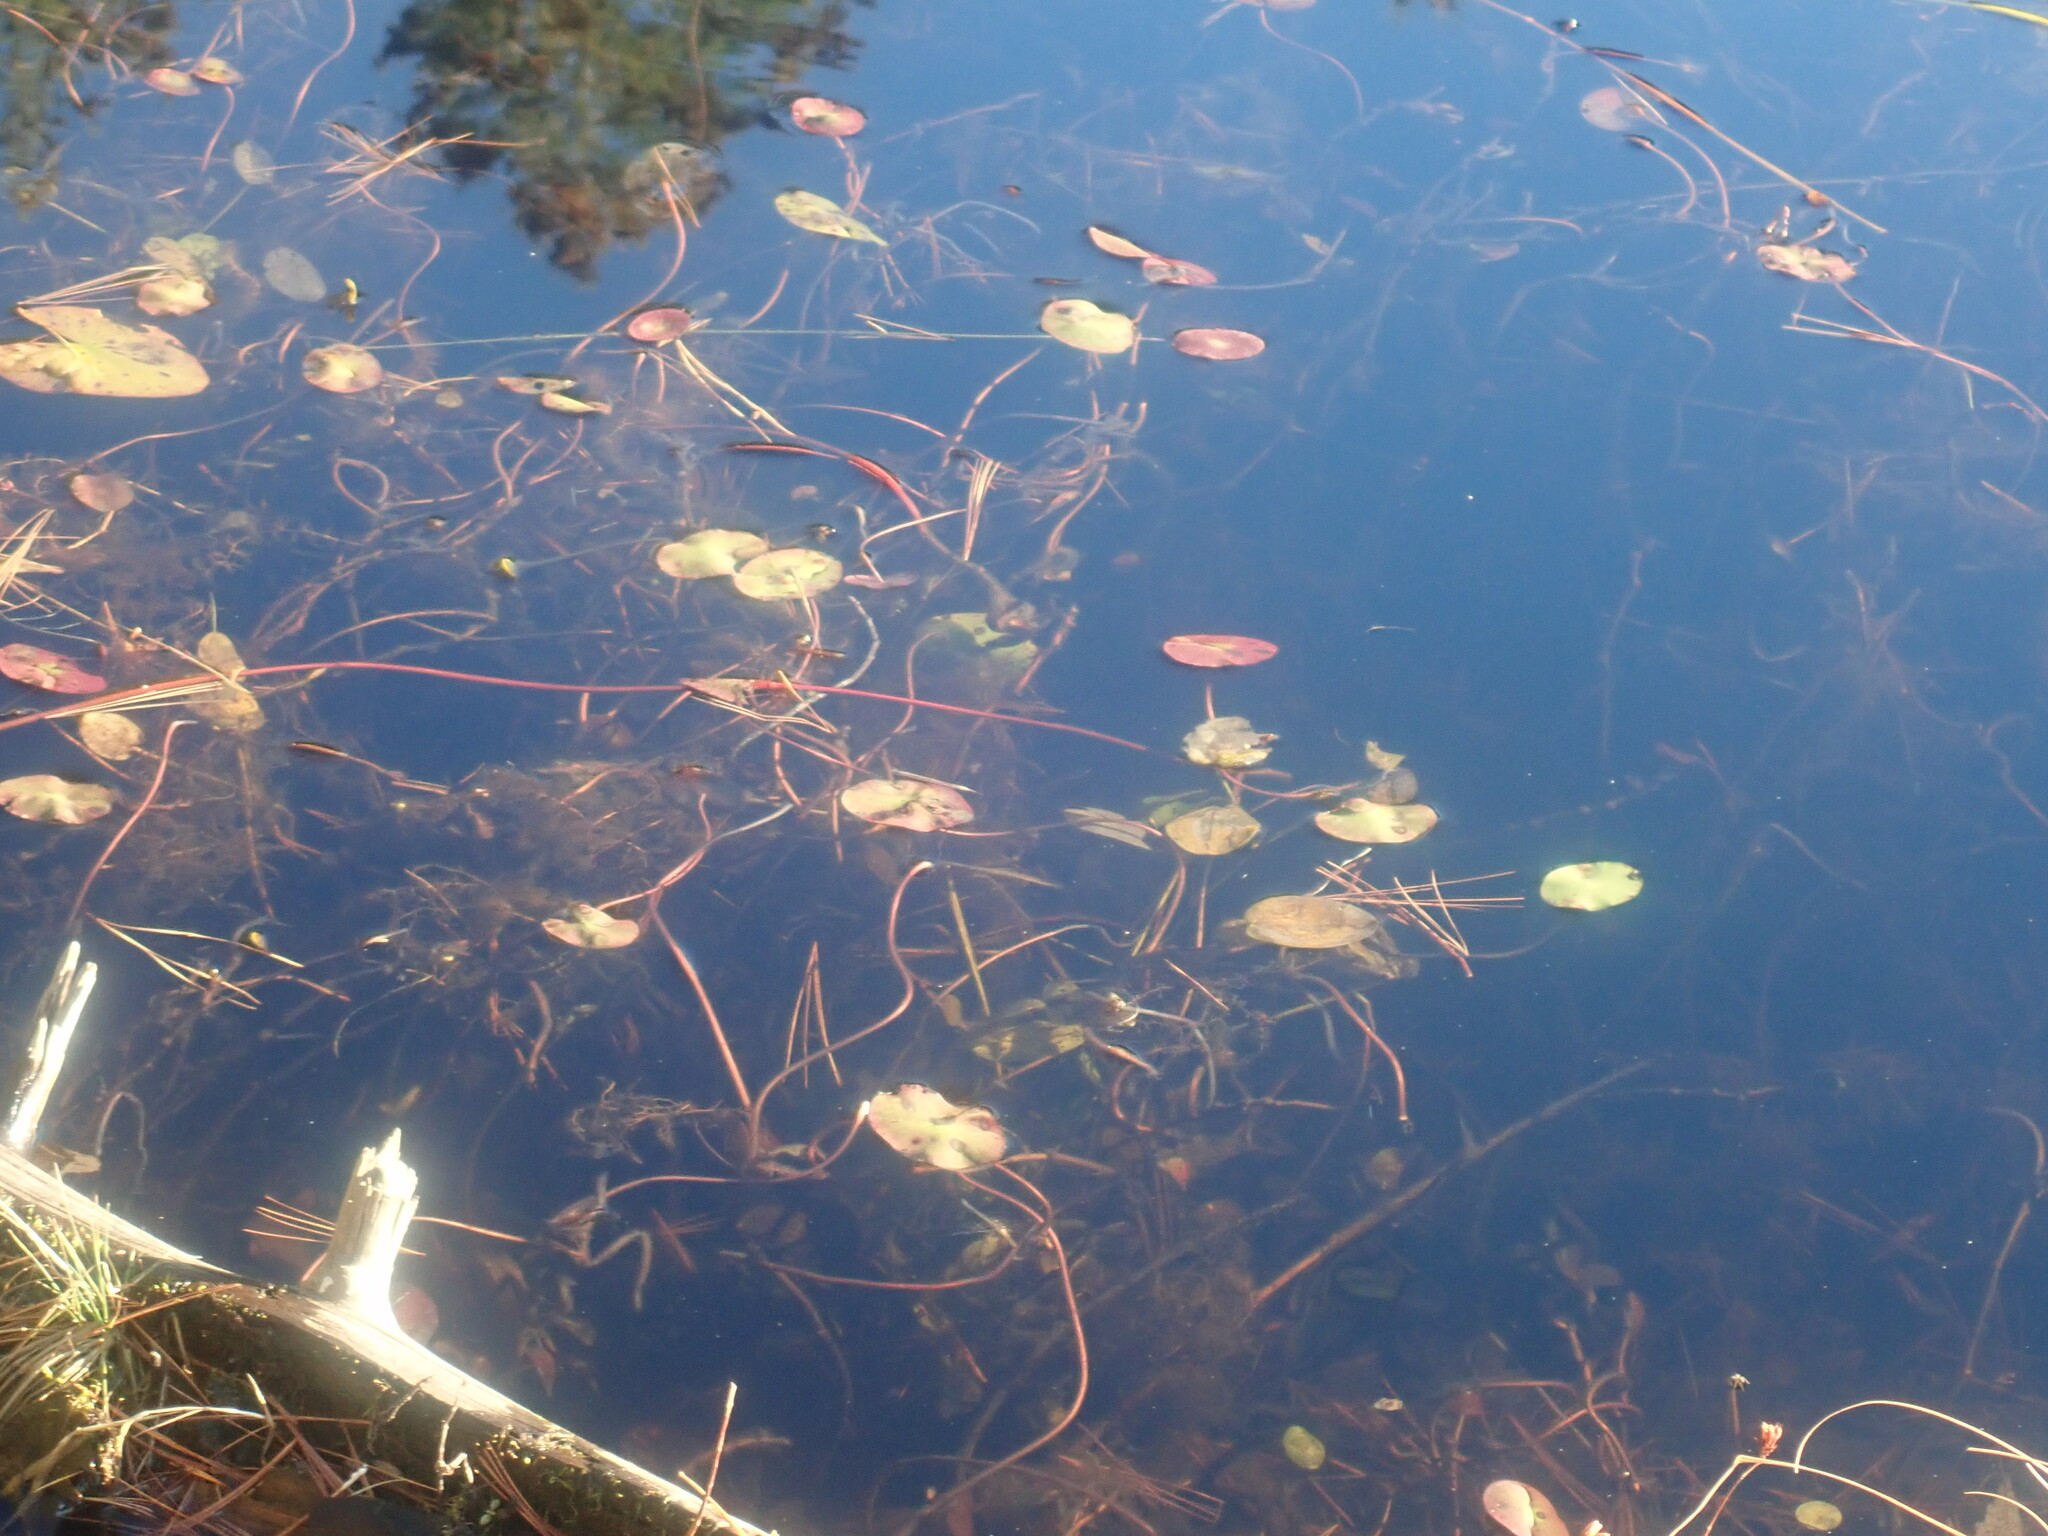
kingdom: Plantae
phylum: Tracheophyta
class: Magnoliopsida
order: Nymphaeales
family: Cabombaceae
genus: Brasenia
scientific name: Brasenia schreberi
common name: Water-shield
